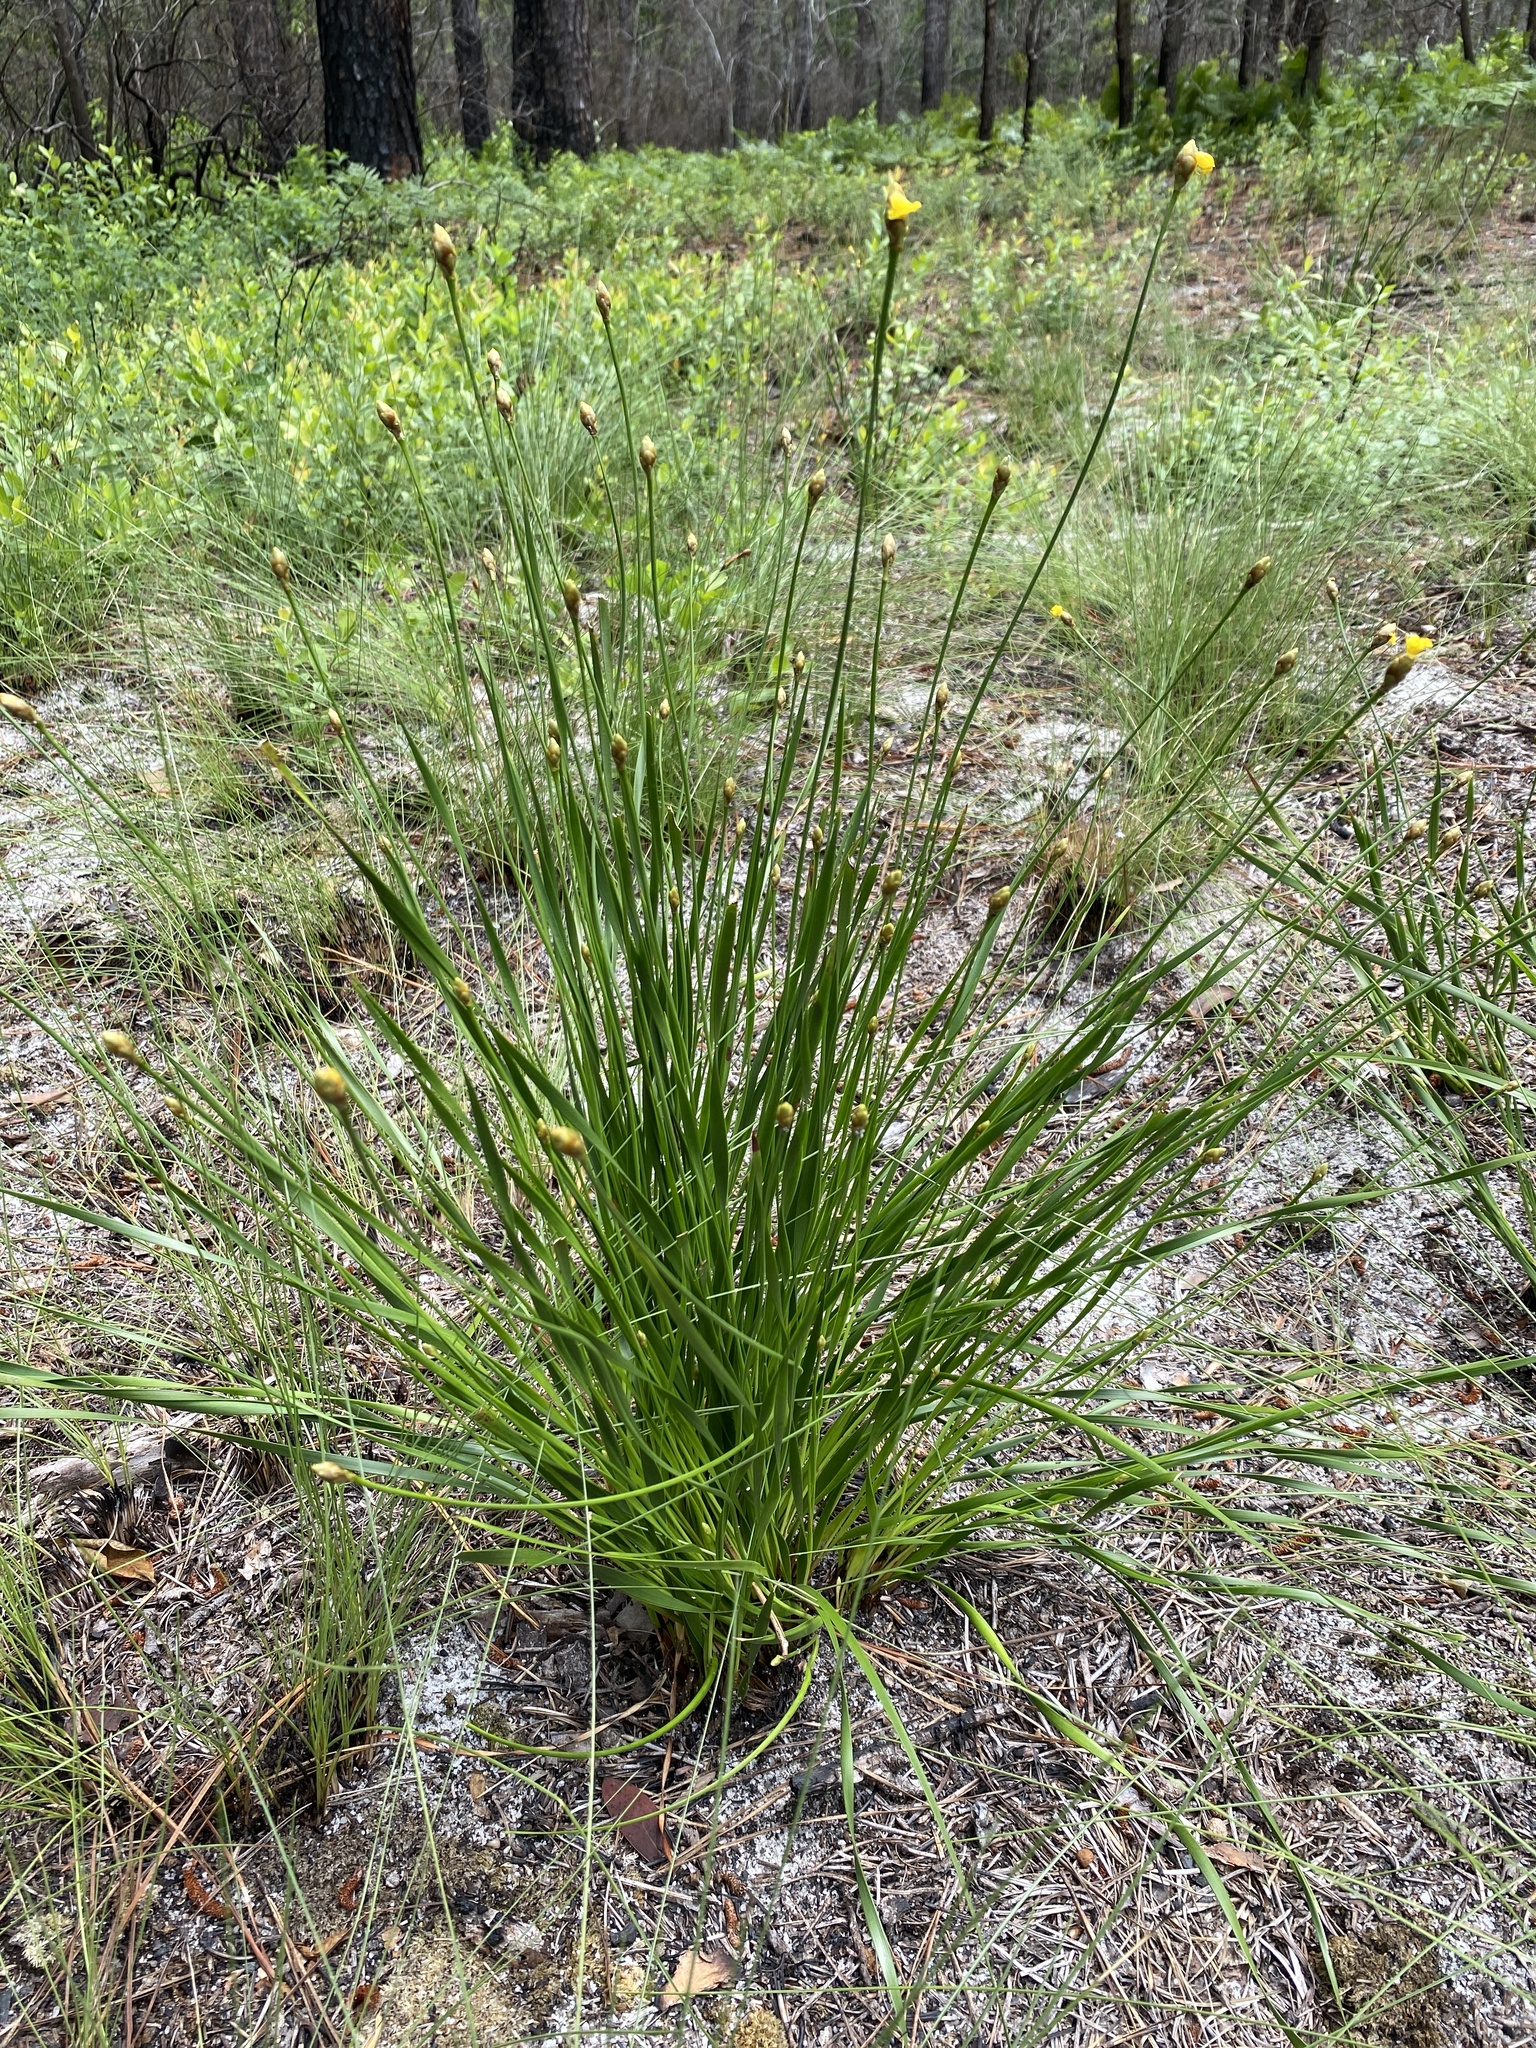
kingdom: Plantae
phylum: Tracheophyta
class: Liliopsida
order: Poales
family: Xyridaceae
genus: Xyris
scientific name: Xyris caroliniana
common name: Carolina yellow-eyed-grass
